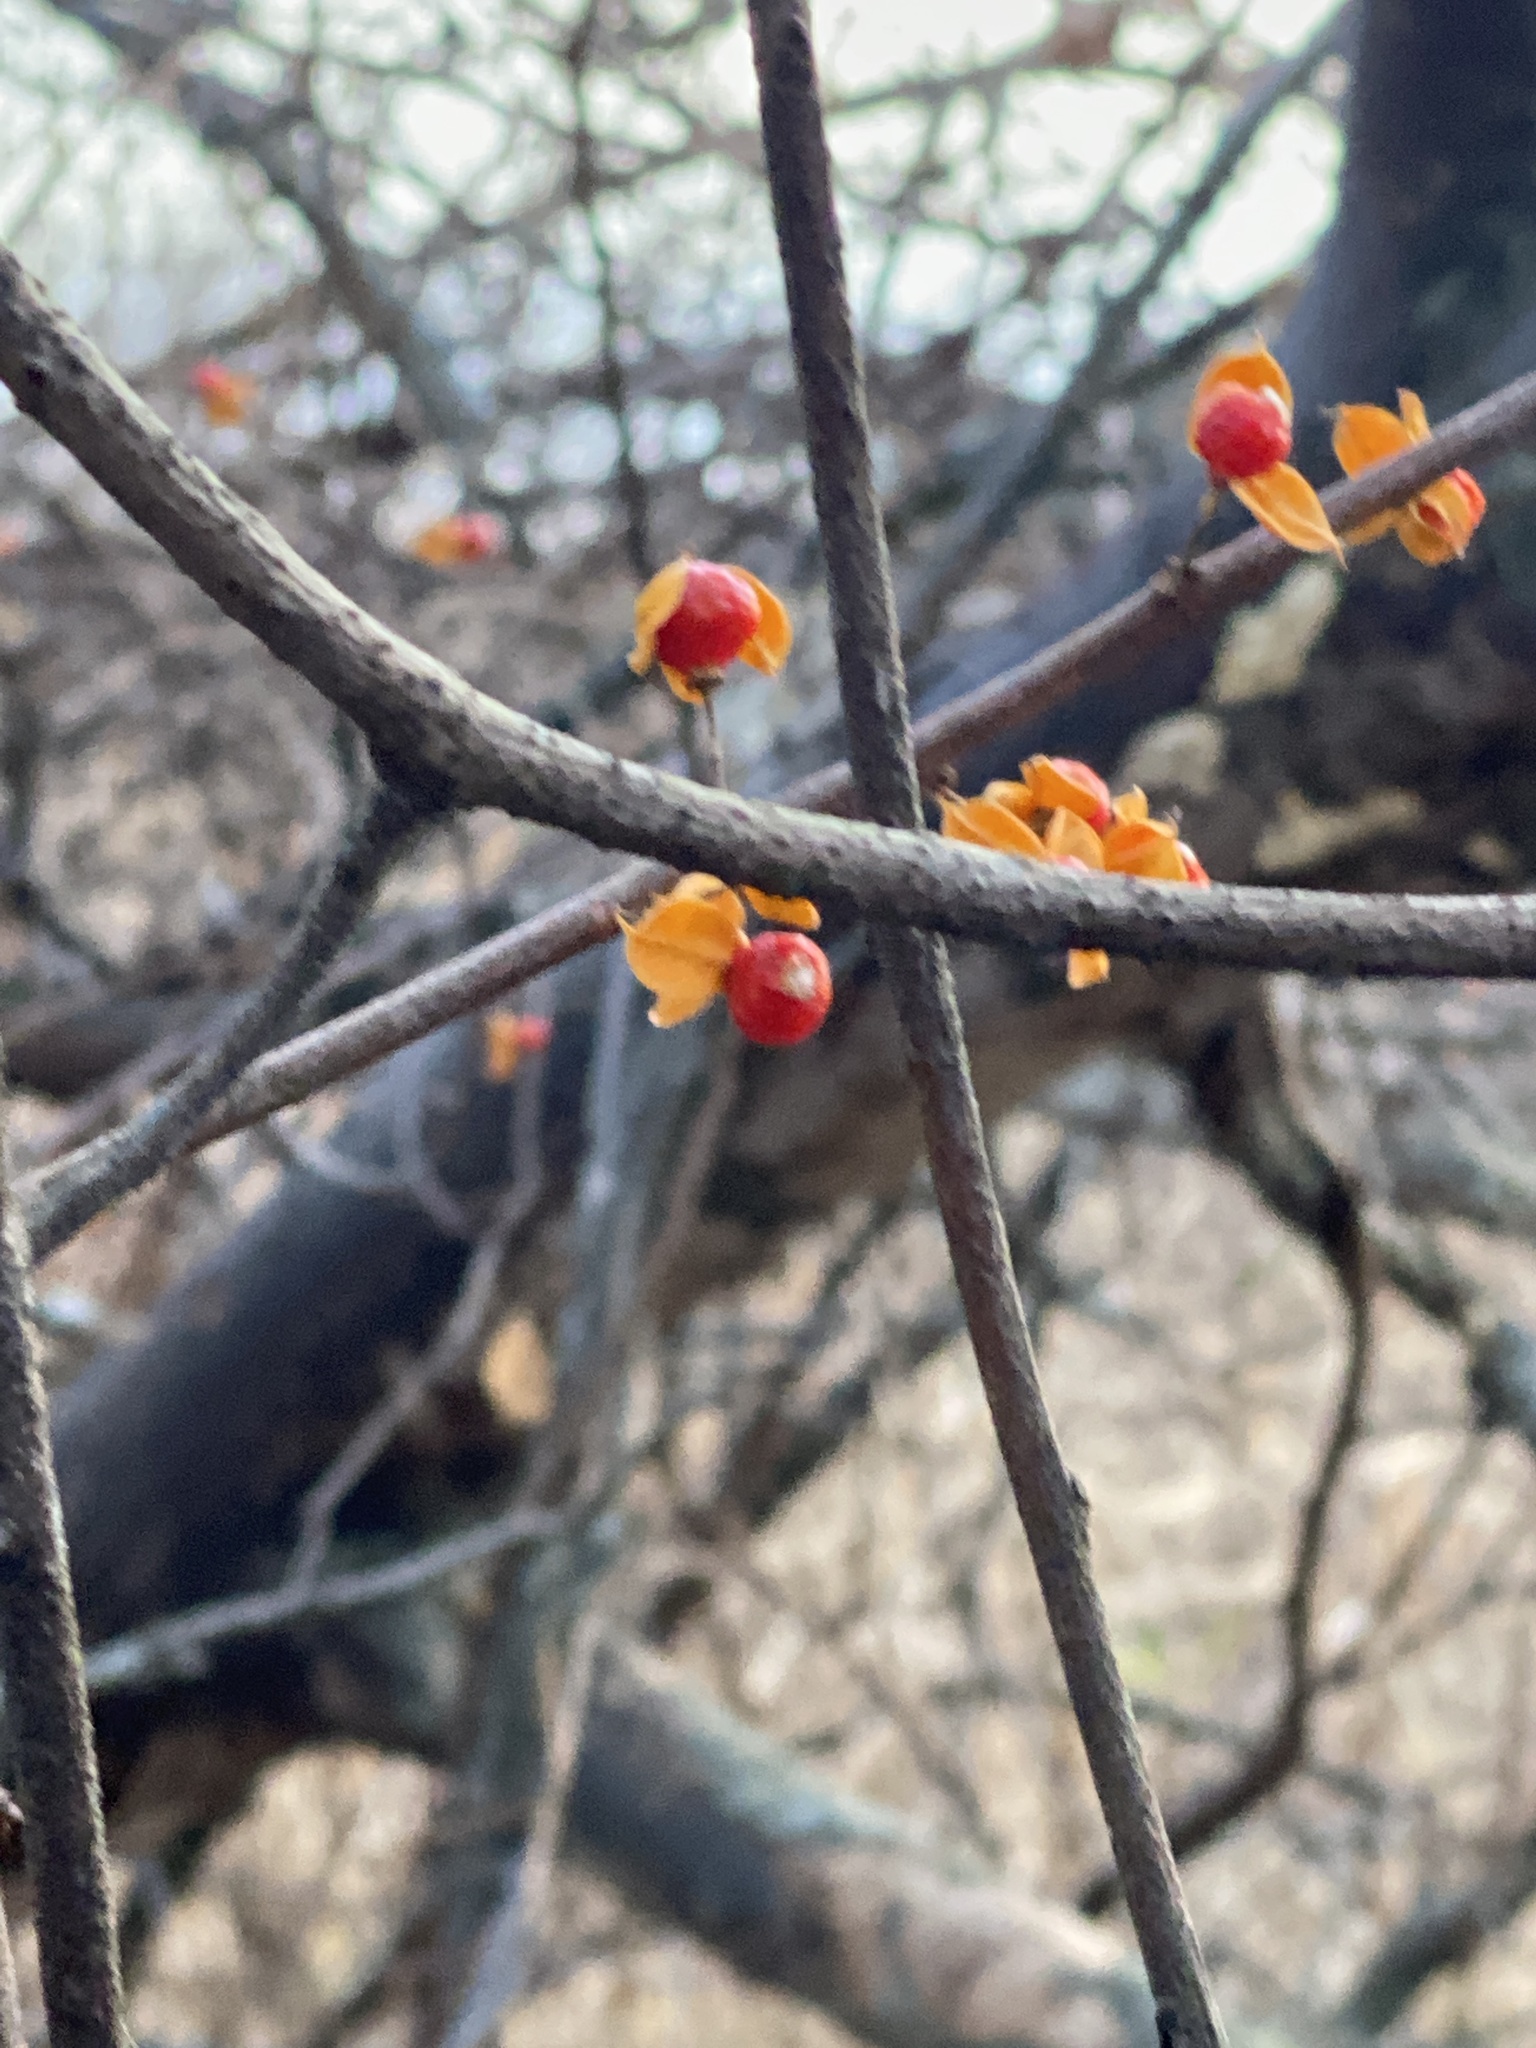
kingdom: Plantae
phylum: Tracheophyta
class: Magnoliopsida
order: Celastrales
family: Celastraceae
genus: Celastrus
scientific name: Celastrus orbiculatus
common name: Oriental bittersweet
